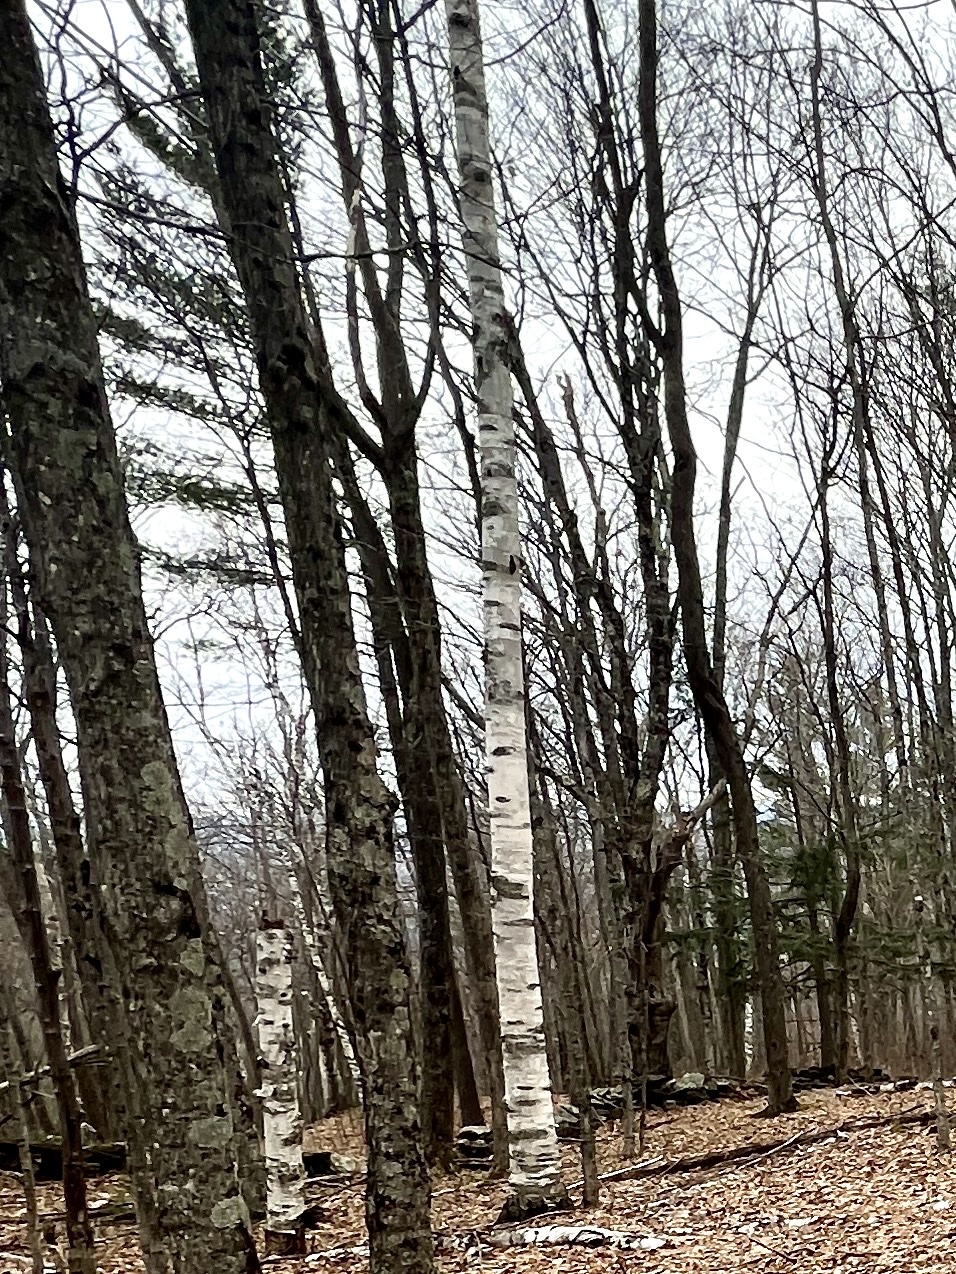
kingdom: Plantae
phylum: Tracheophyta
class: Magnoliopsida
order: Fagales
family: Betulaceae
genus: Betula
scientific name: Betula papyrifera
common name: Paper birch
